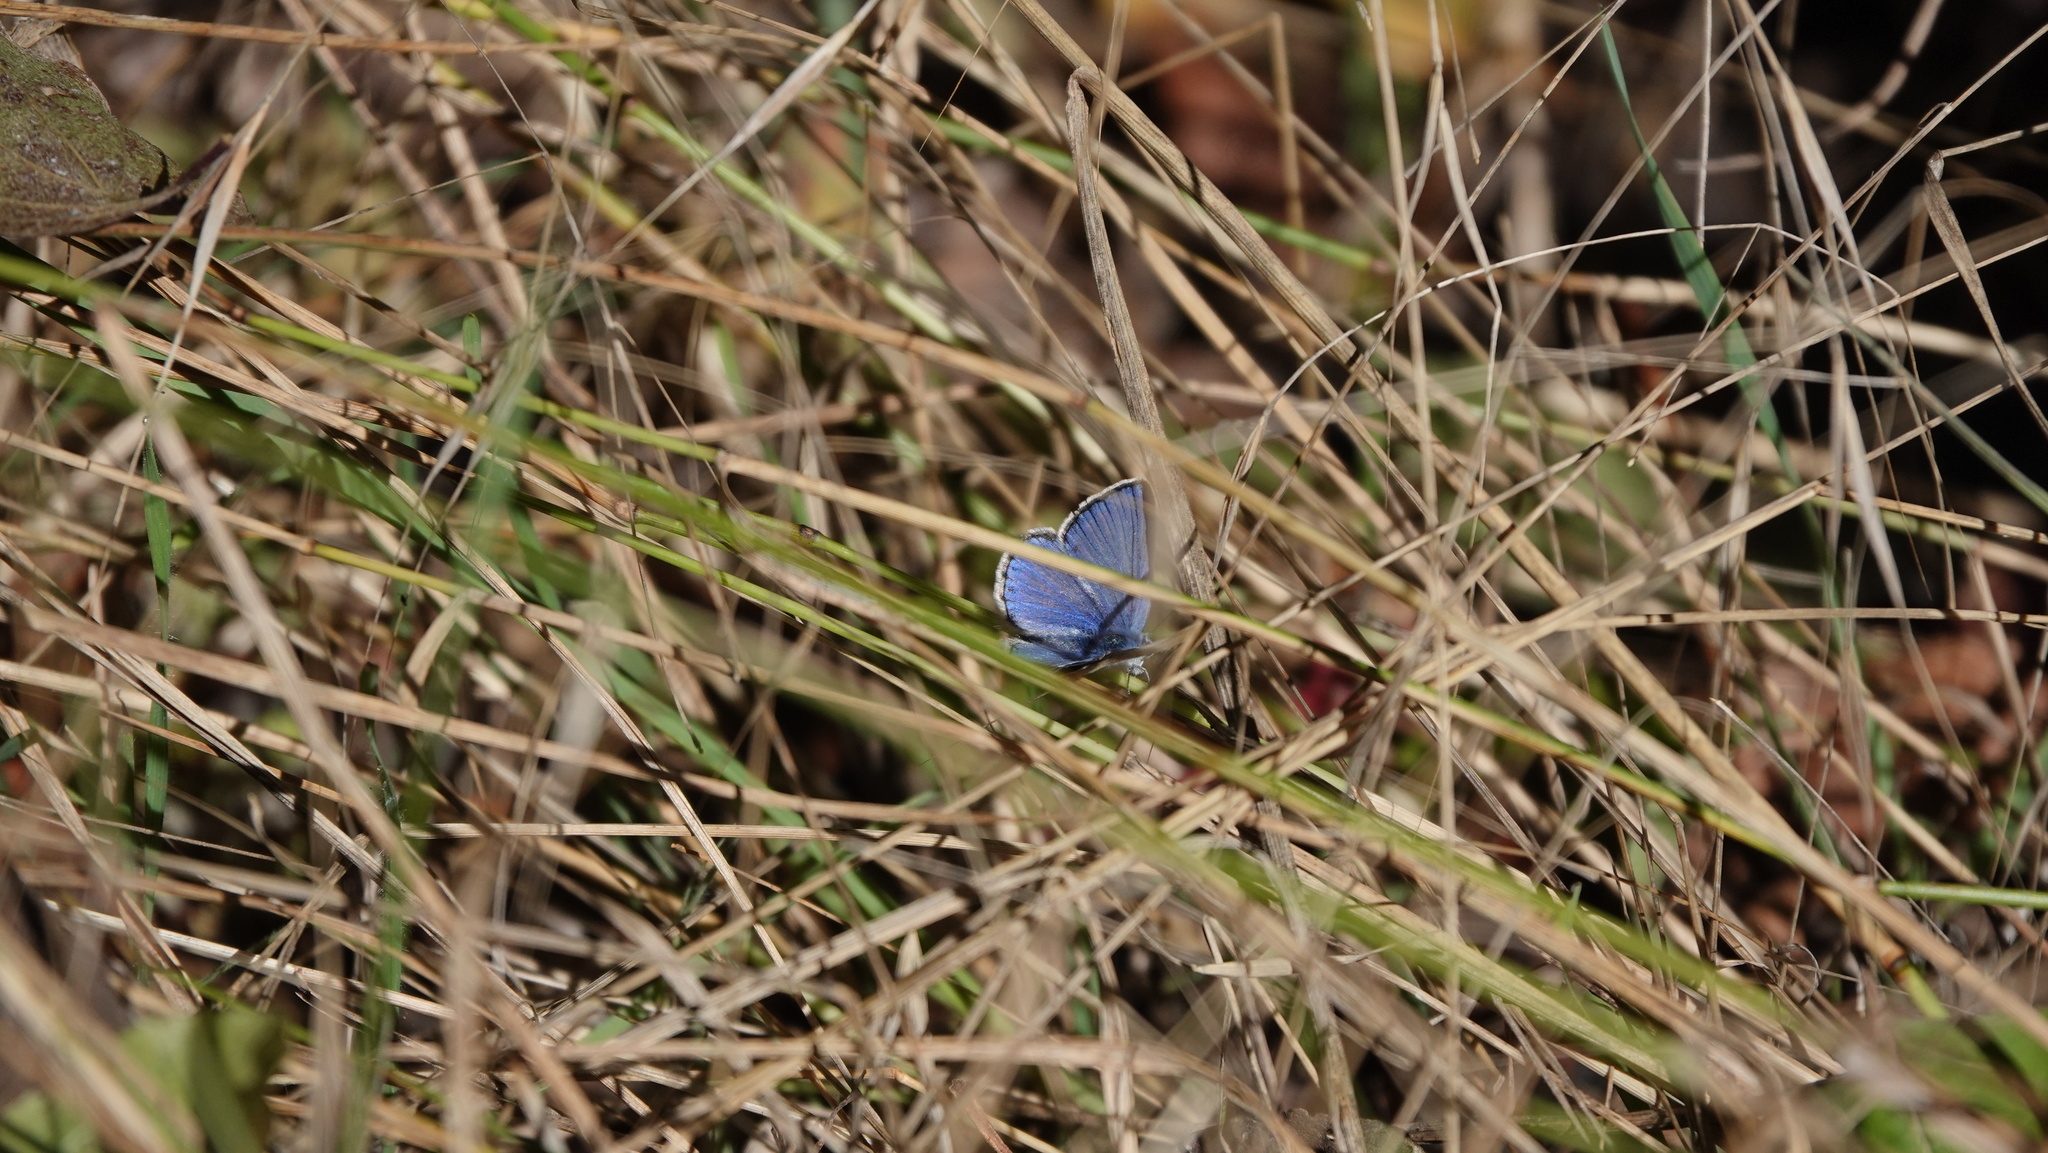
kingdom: Animalia
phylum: Arthropoda
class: Insecta
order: Lepidoptera
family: Lycaenidae
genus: Polyommatus
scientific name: Polyommatus icarus
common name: Common blue
